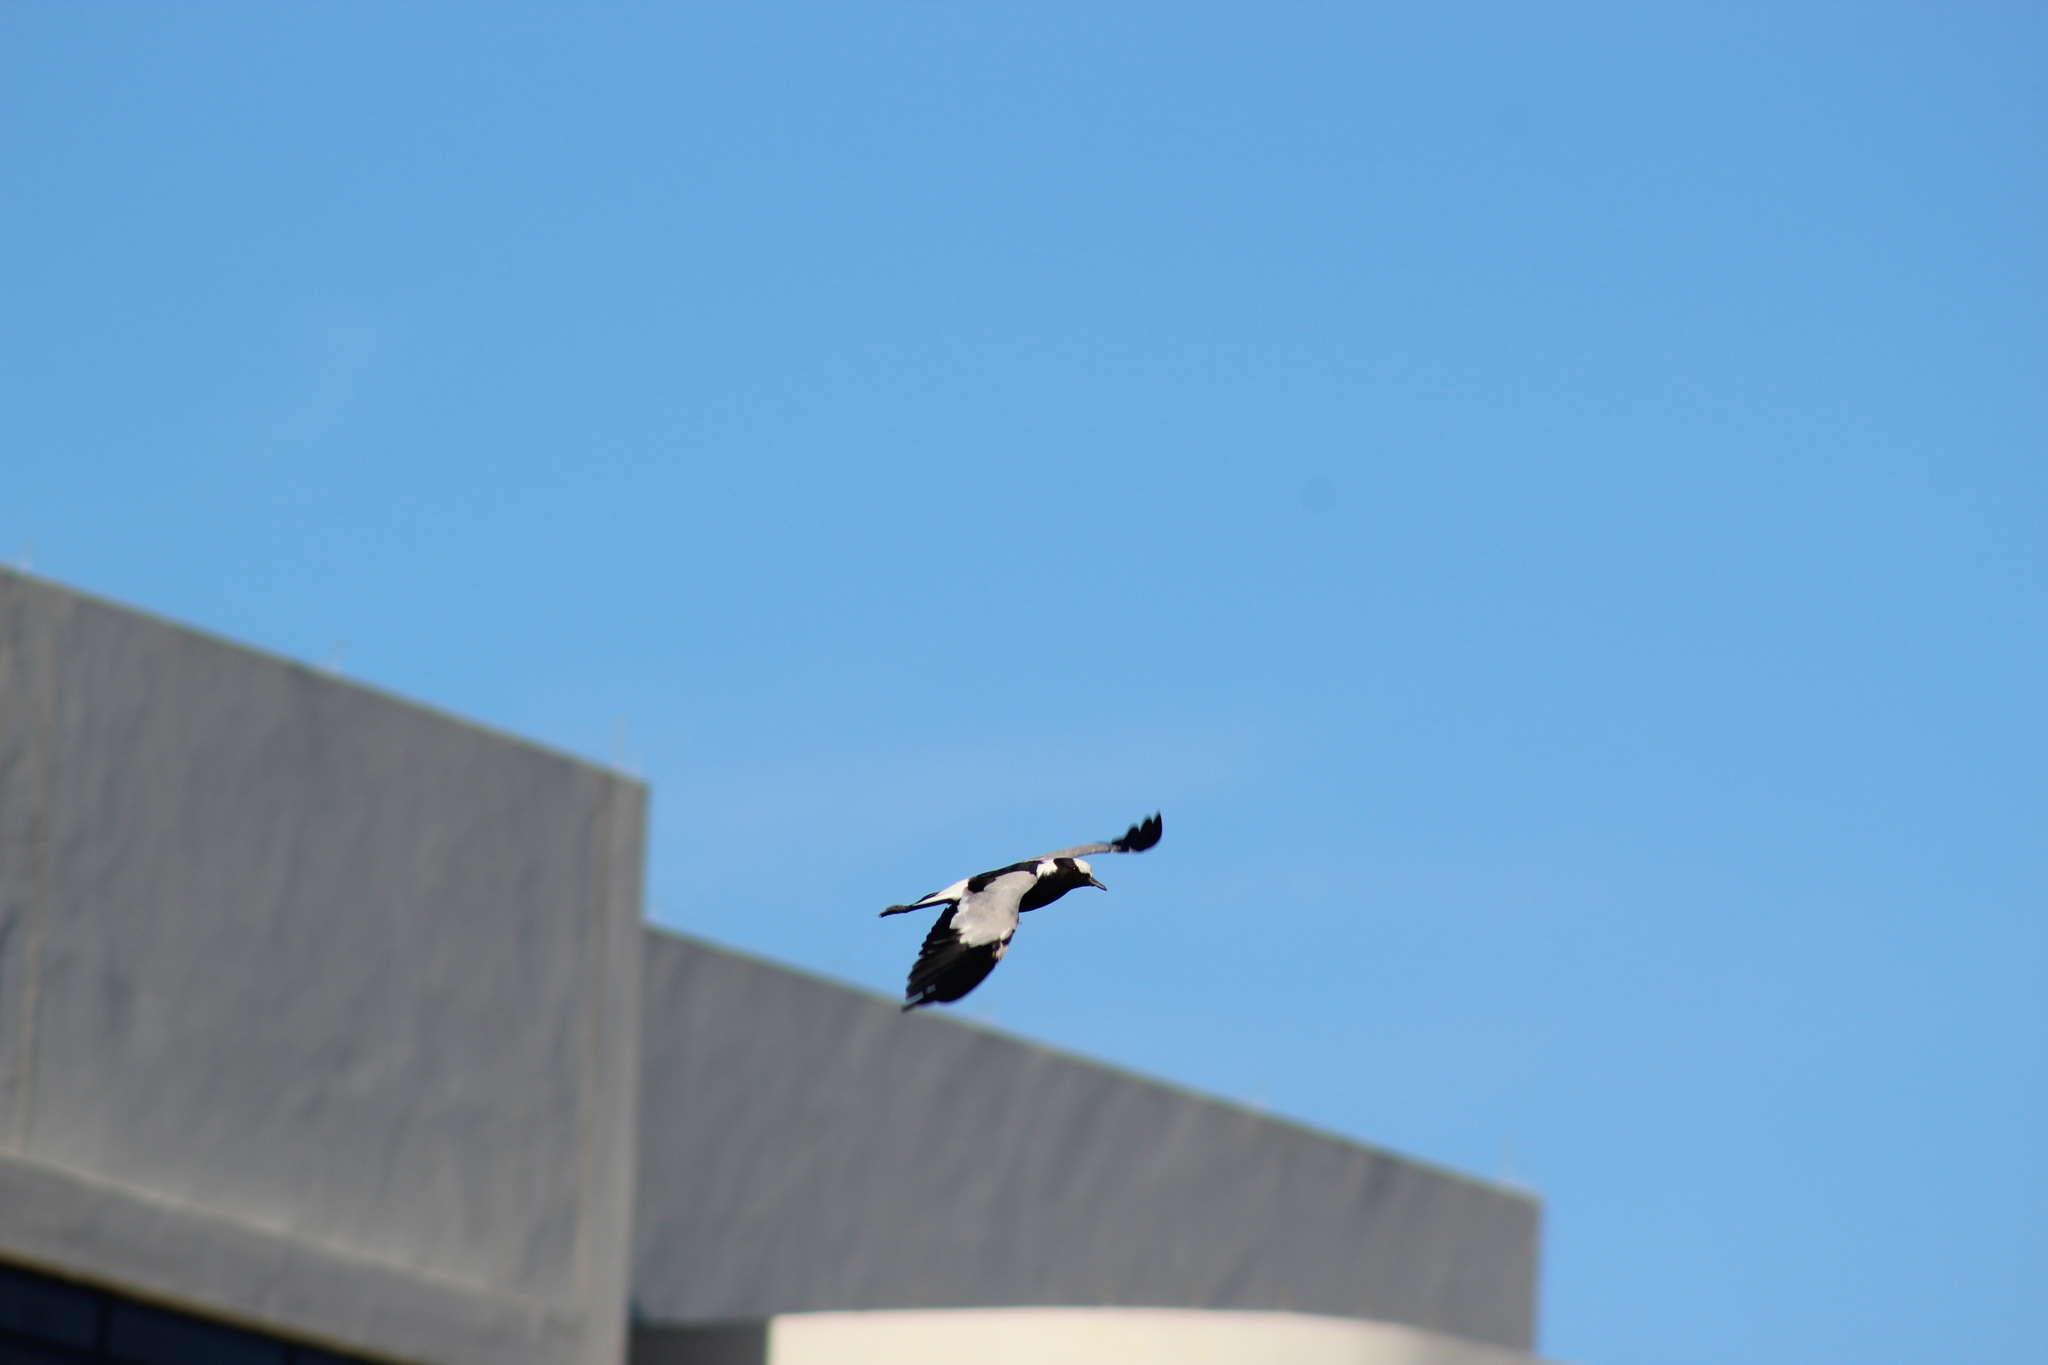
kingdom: Animalia
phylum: Chordata
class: Aves
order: Charadriiformes
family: Charadriidae
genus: Vanellus
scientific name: Vanellus armatus
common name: Blacksmith lapwing
